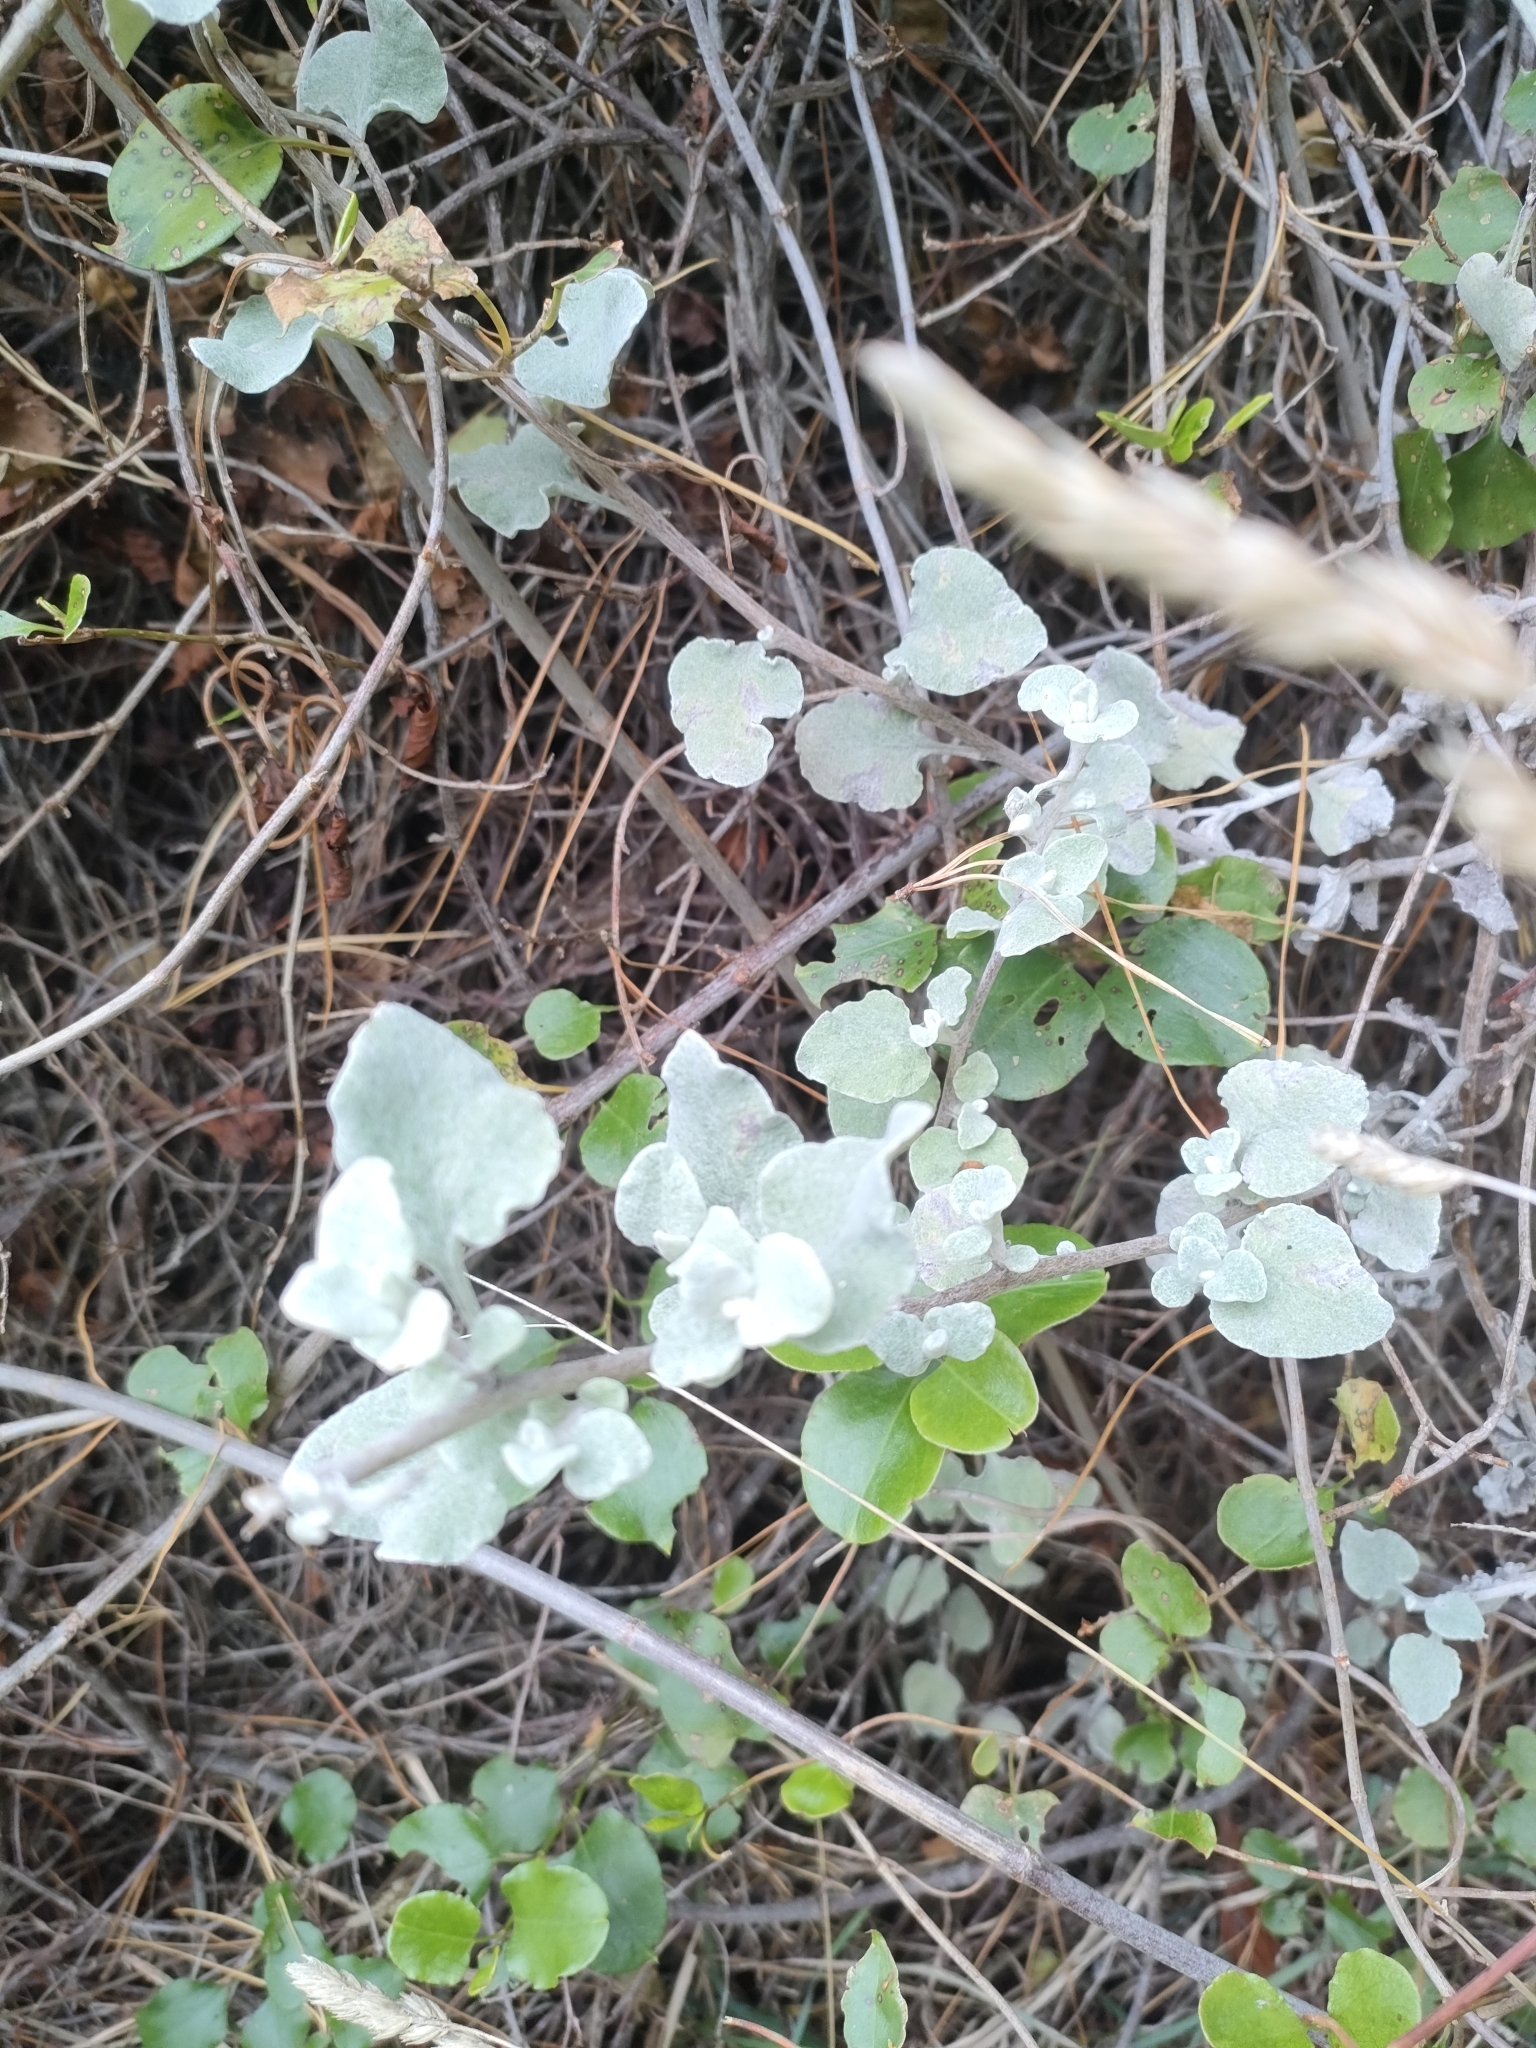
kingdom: Plantae
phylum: Tracheophyta
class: Magnoliopsida
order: Asterales
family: Asteraceae
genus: Helichrysum
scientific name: Helichrysum petiolare
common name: Licorice-plant
